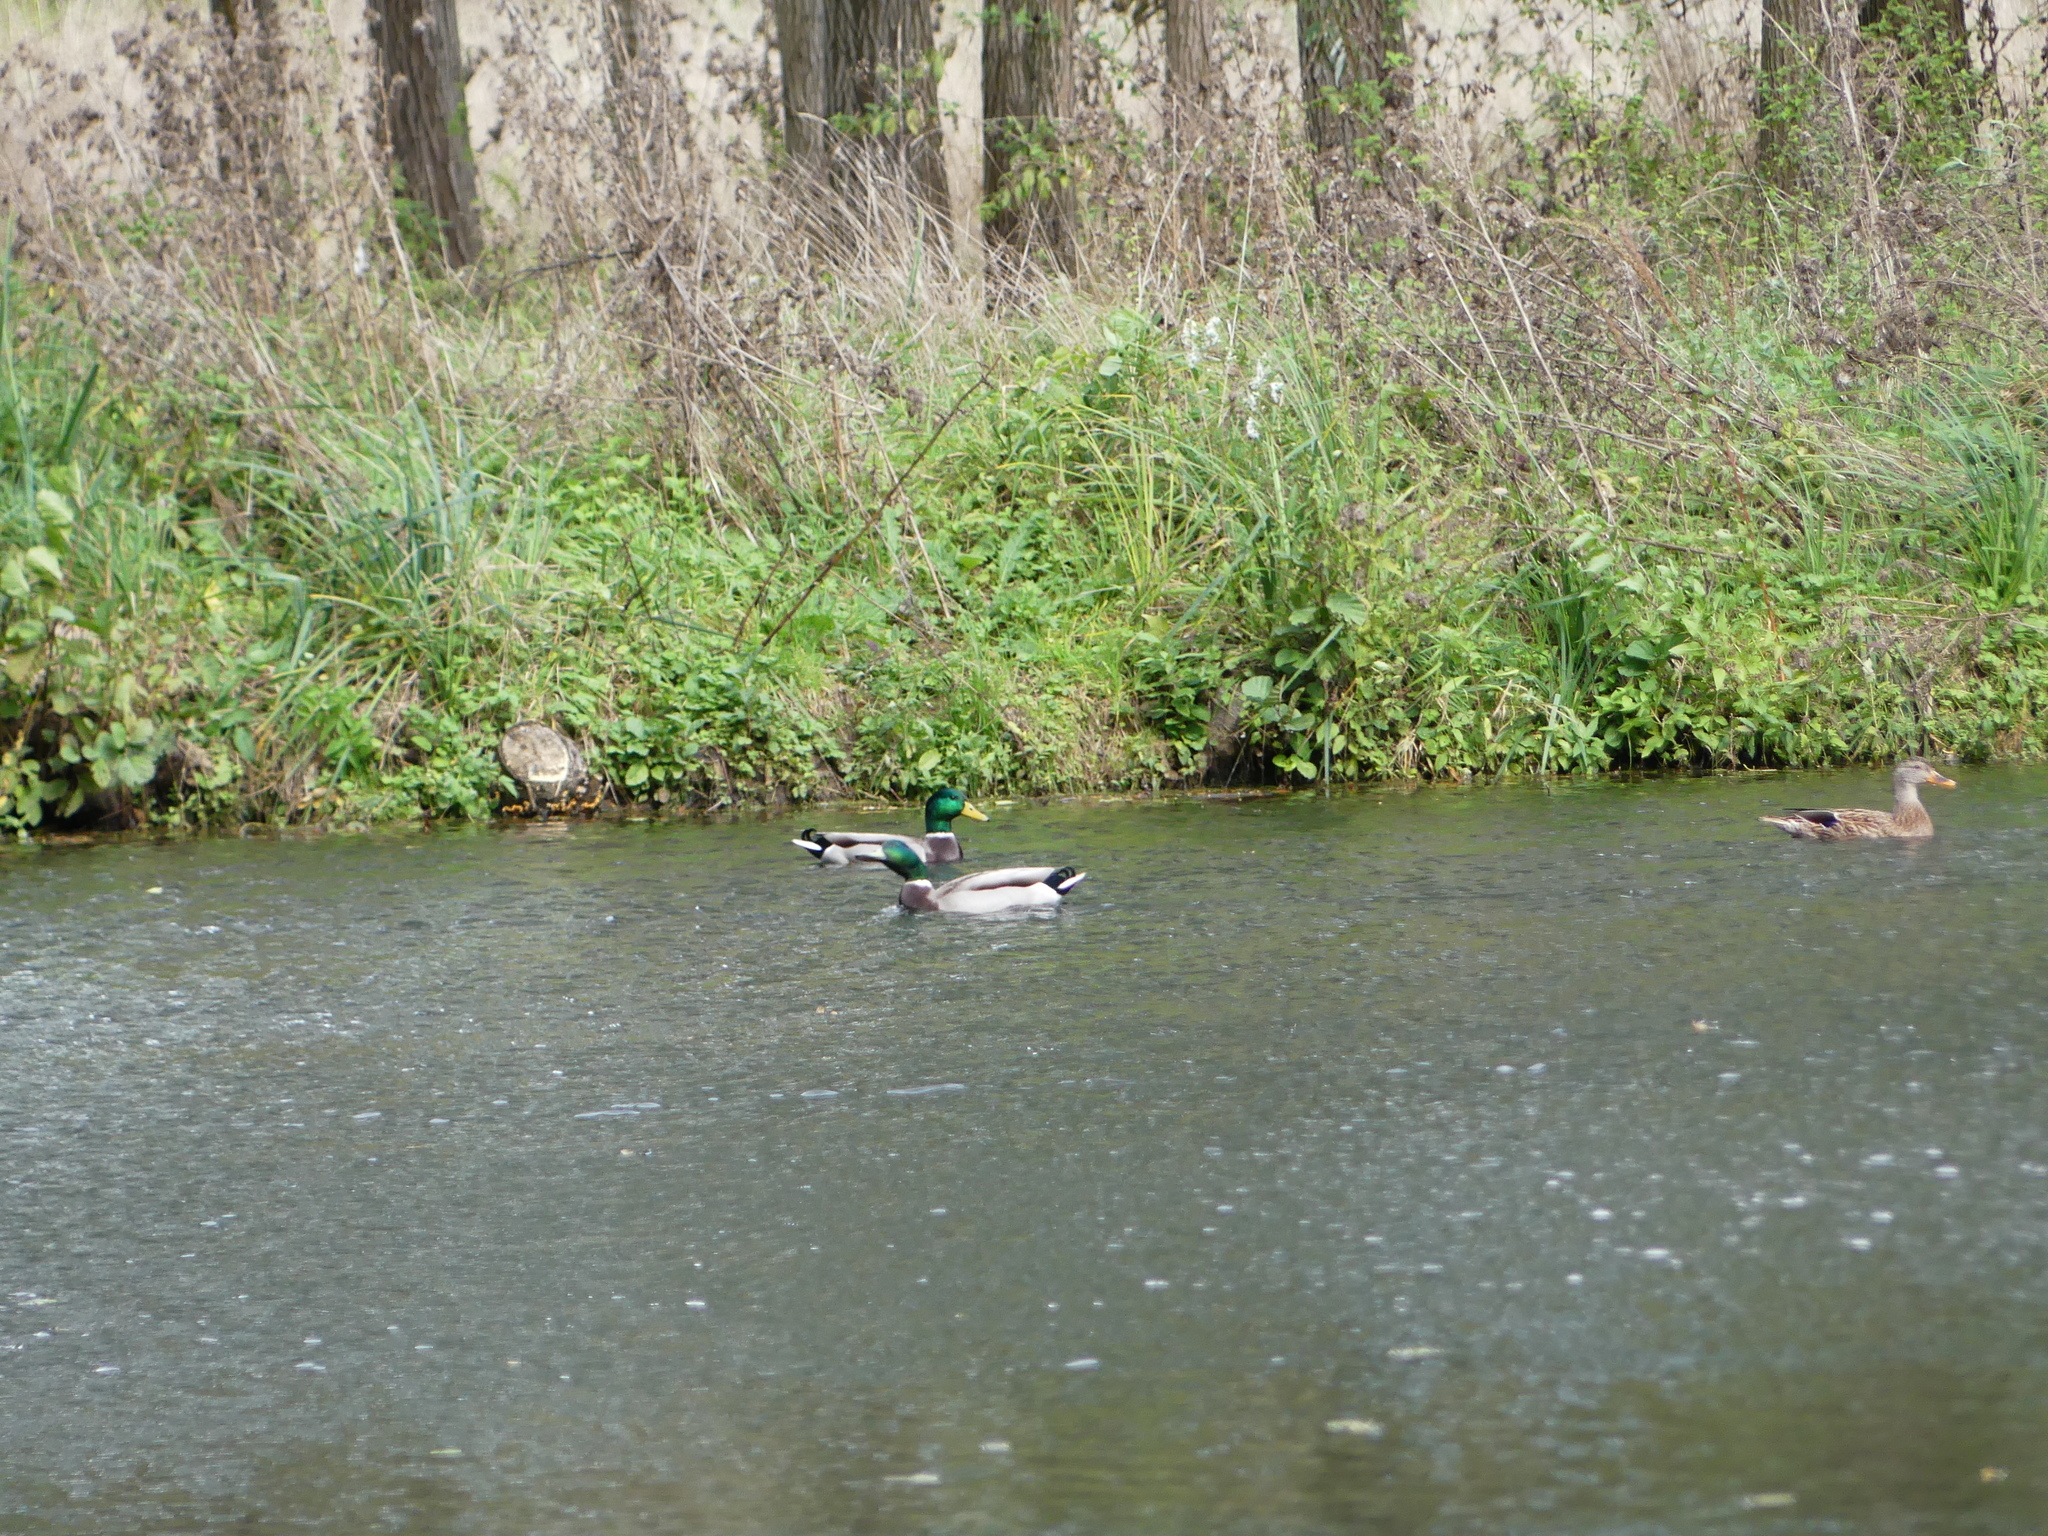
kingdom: Animalia
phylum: Chordata
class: Aves
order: Anseriformes
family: Anatidae
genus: Anas
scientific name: Anas platyrhynchos
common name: Mallard
